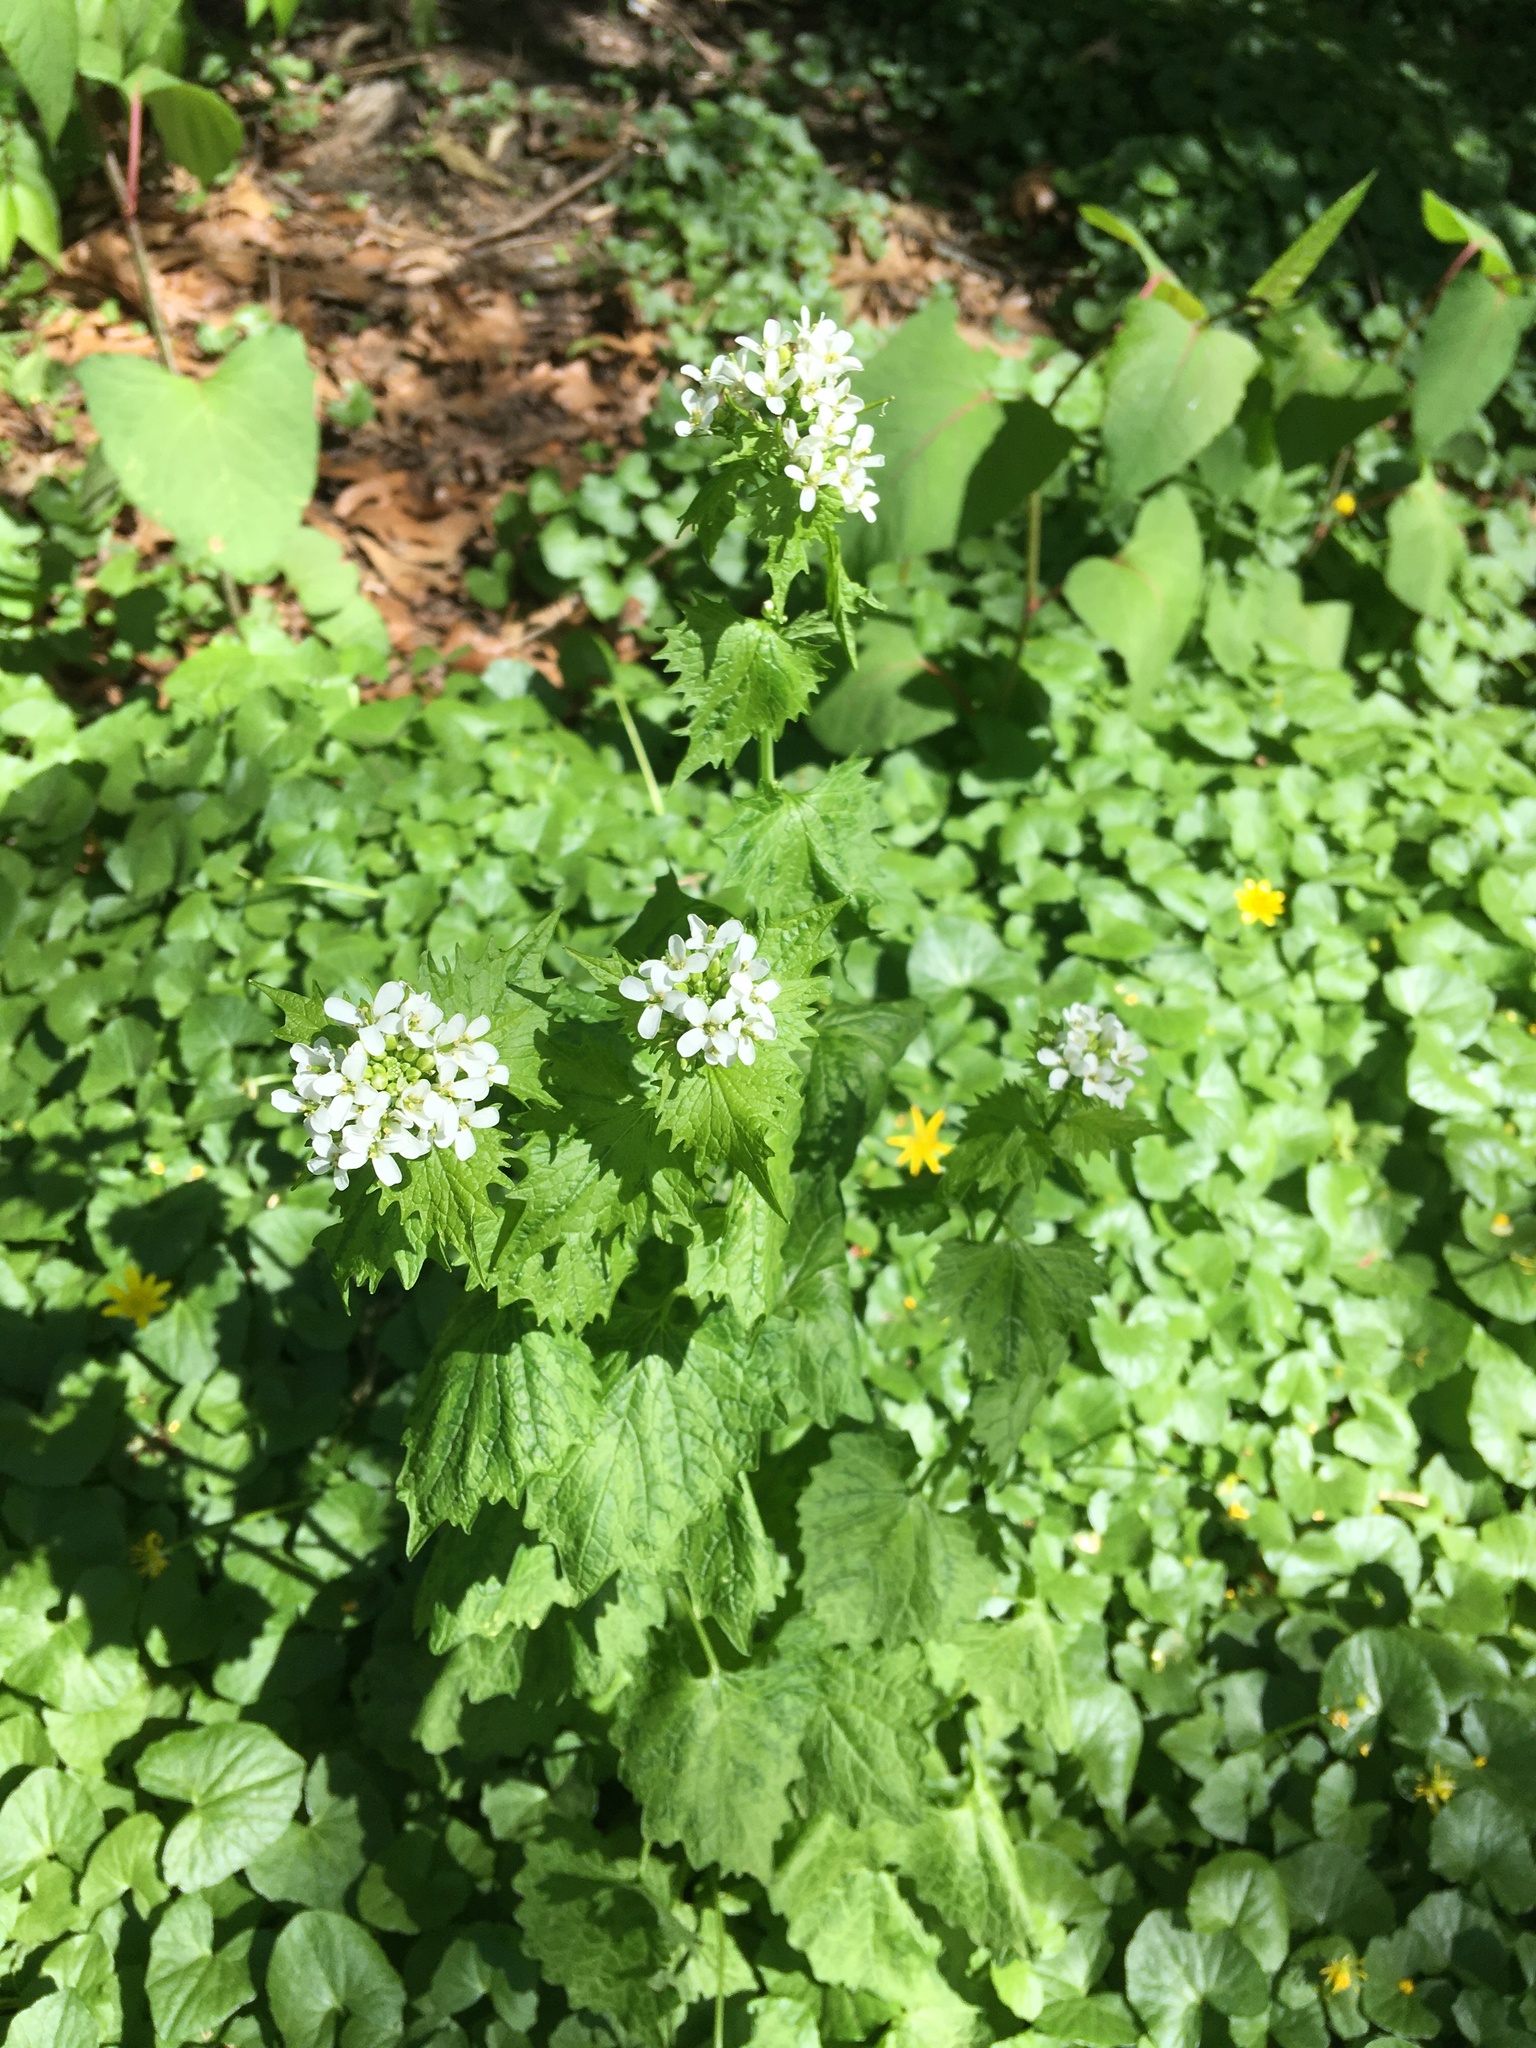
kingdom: Plantae
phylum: Tracheophyta
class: Magnoliopsida
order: Brassicales
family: Brassicaceae
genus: Alliaria
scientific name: Alliaria petiolata
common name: Garlic mustard
